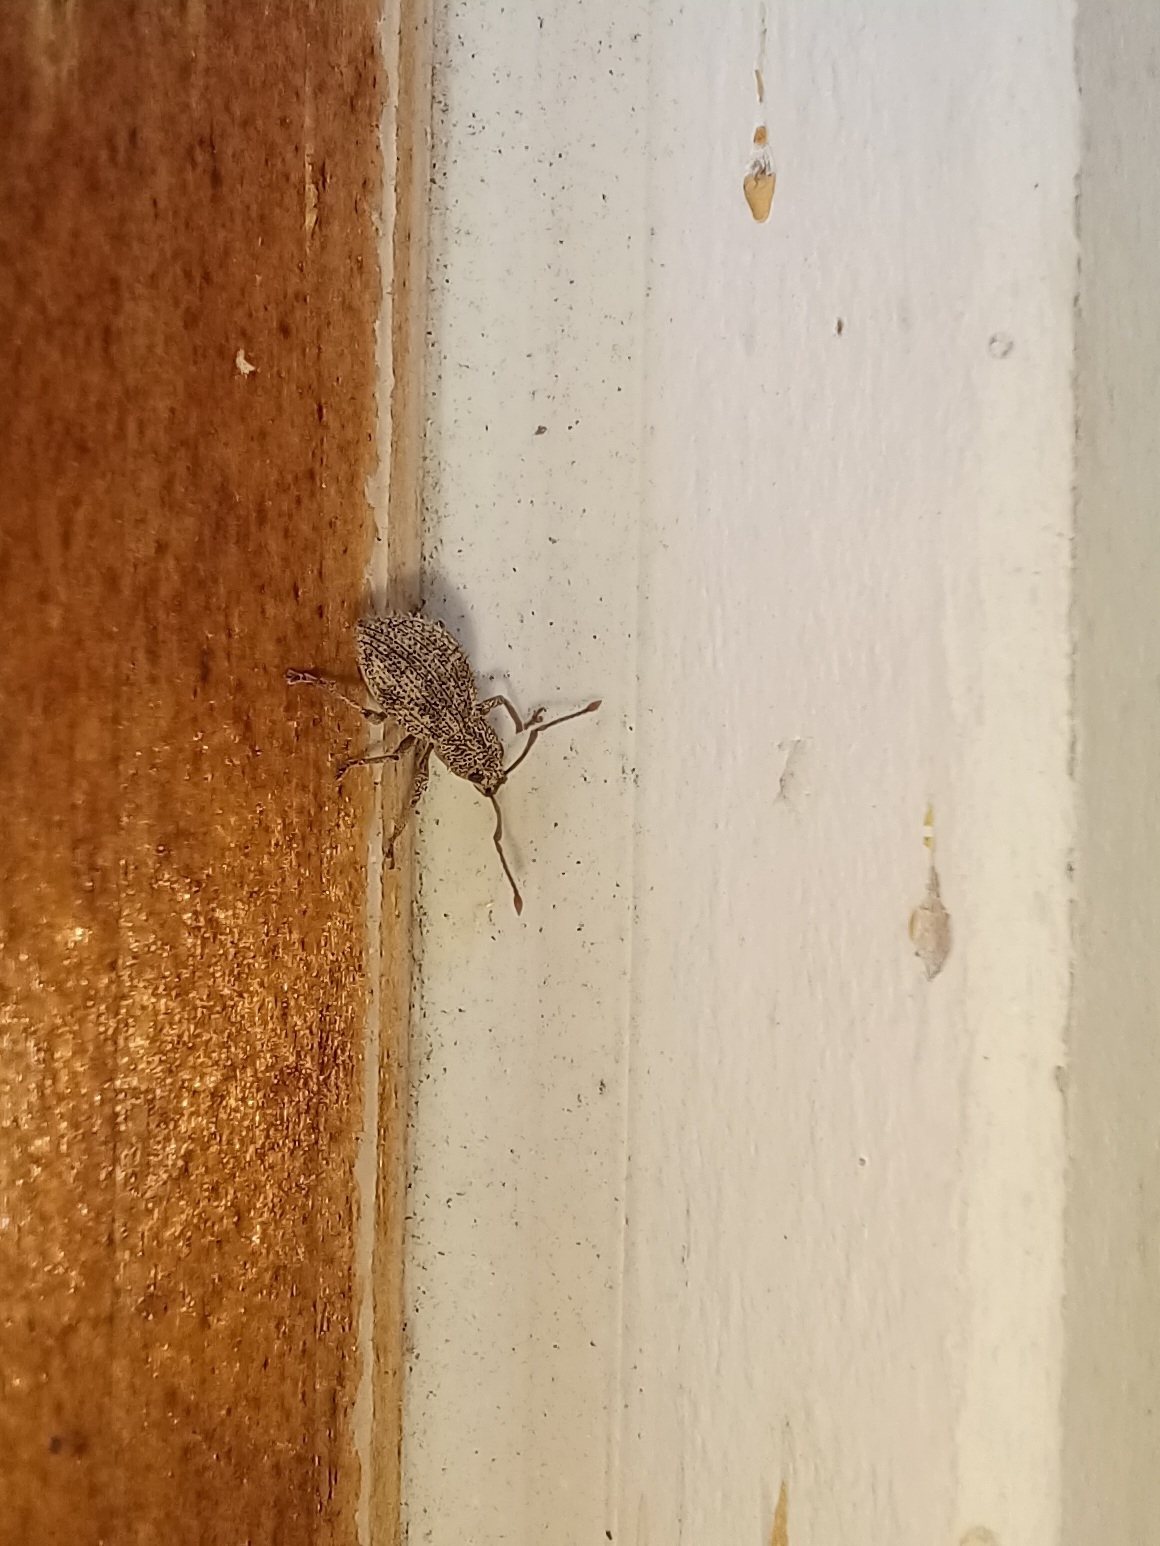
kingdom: Animalia
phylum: Arthropoda
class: Insecta
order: Coleoptera
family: Curculionidae
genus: Calomycterus
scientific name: Calomycterus setarius
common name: Weevil
